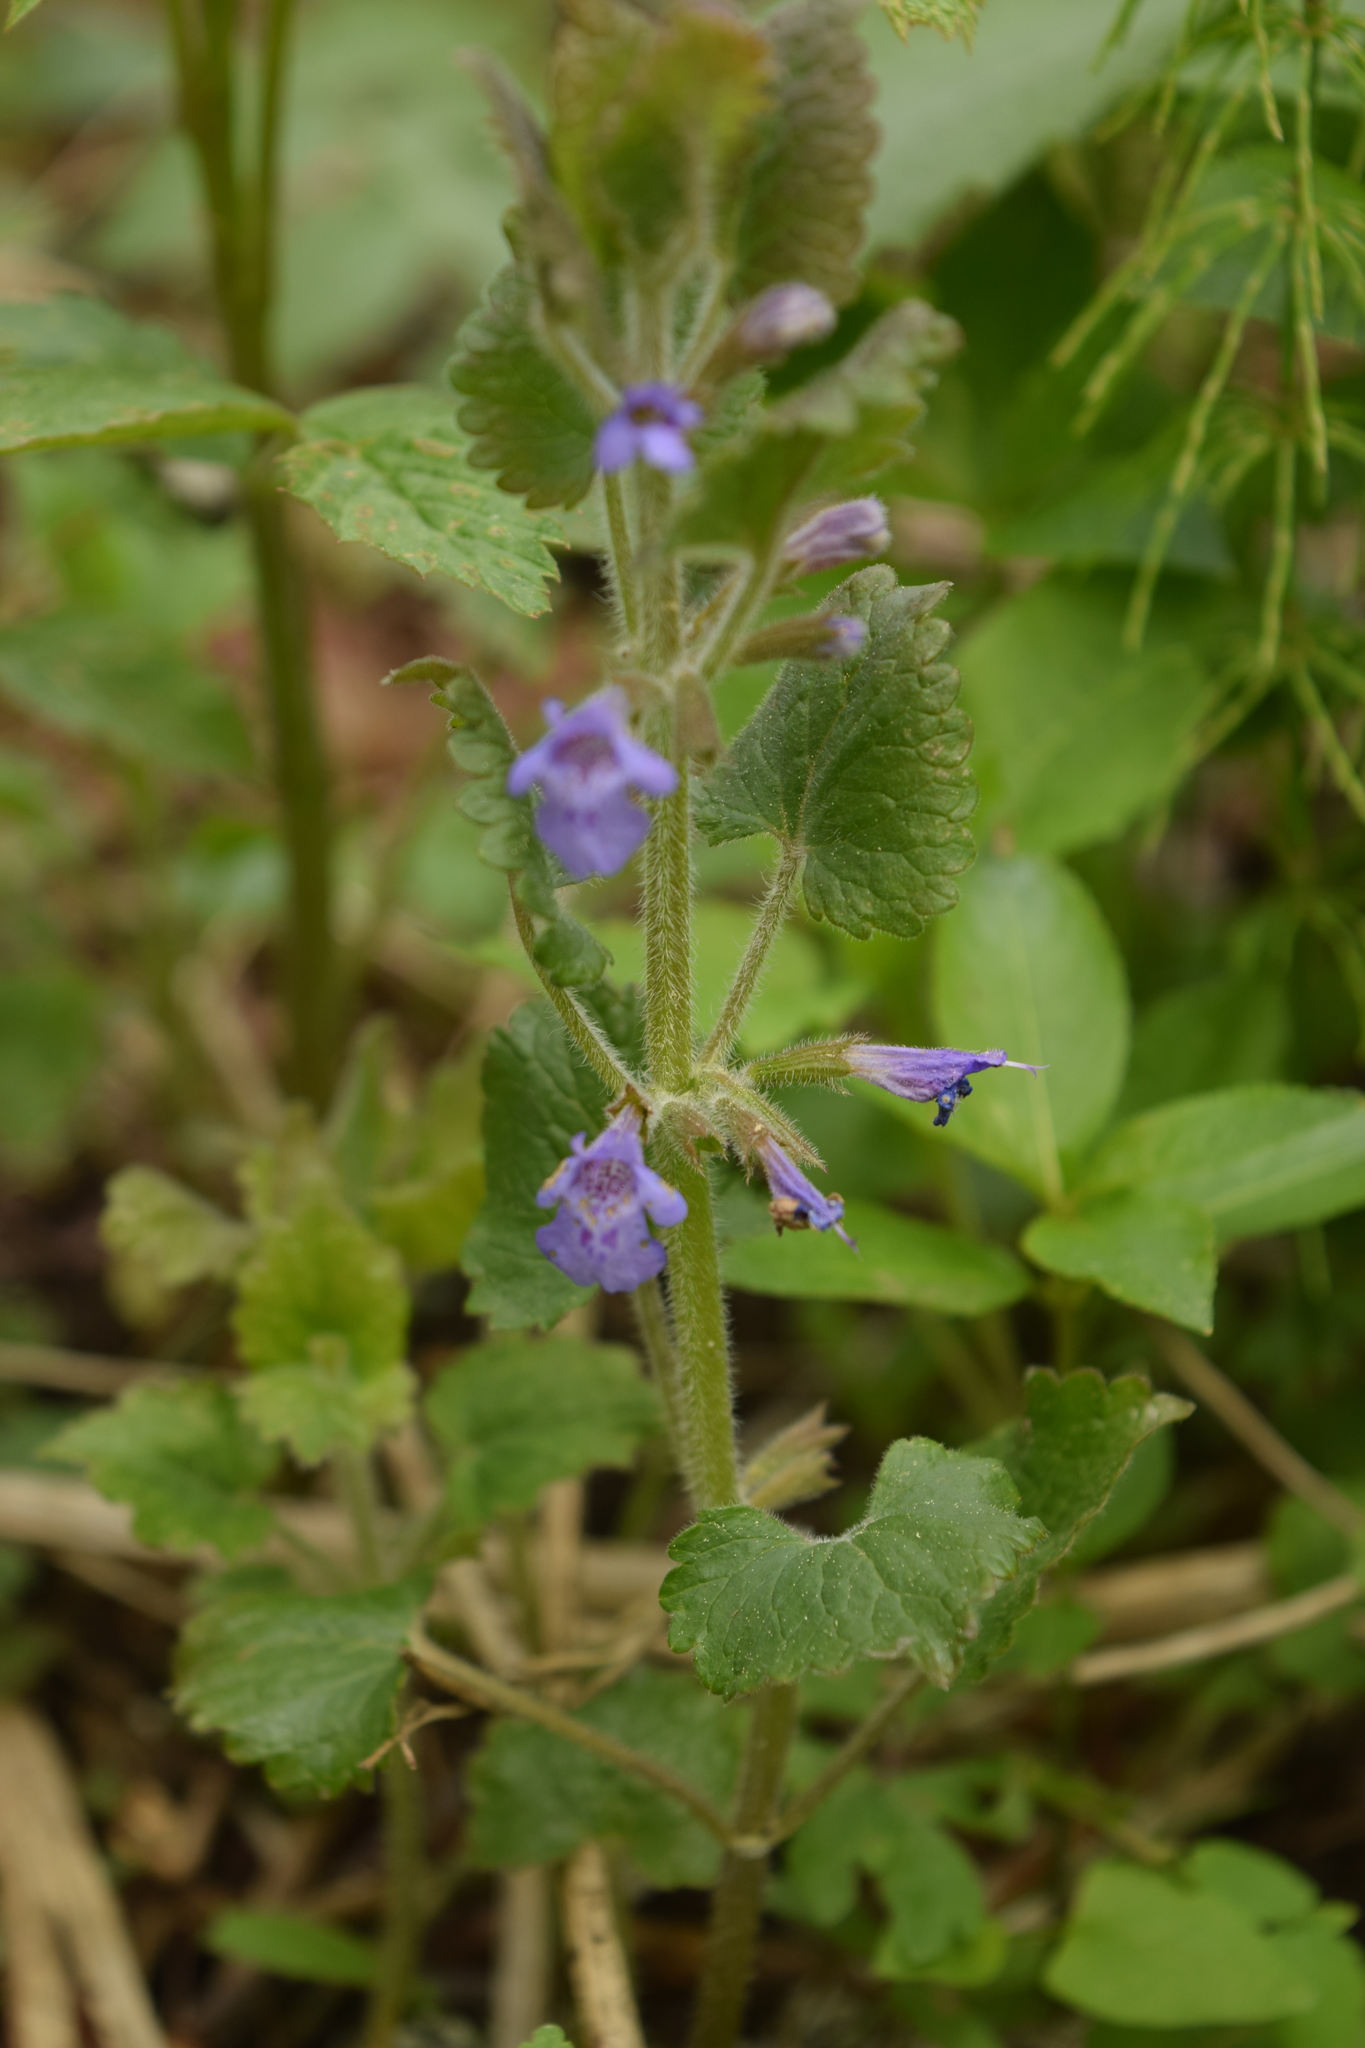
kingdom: Plantae
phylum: Tracheophyta
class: Magnoliopsida
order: Lamiales
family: Lamiaceae
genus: Glechoma
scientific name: Glechoma hederacea
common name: Ground ivy
